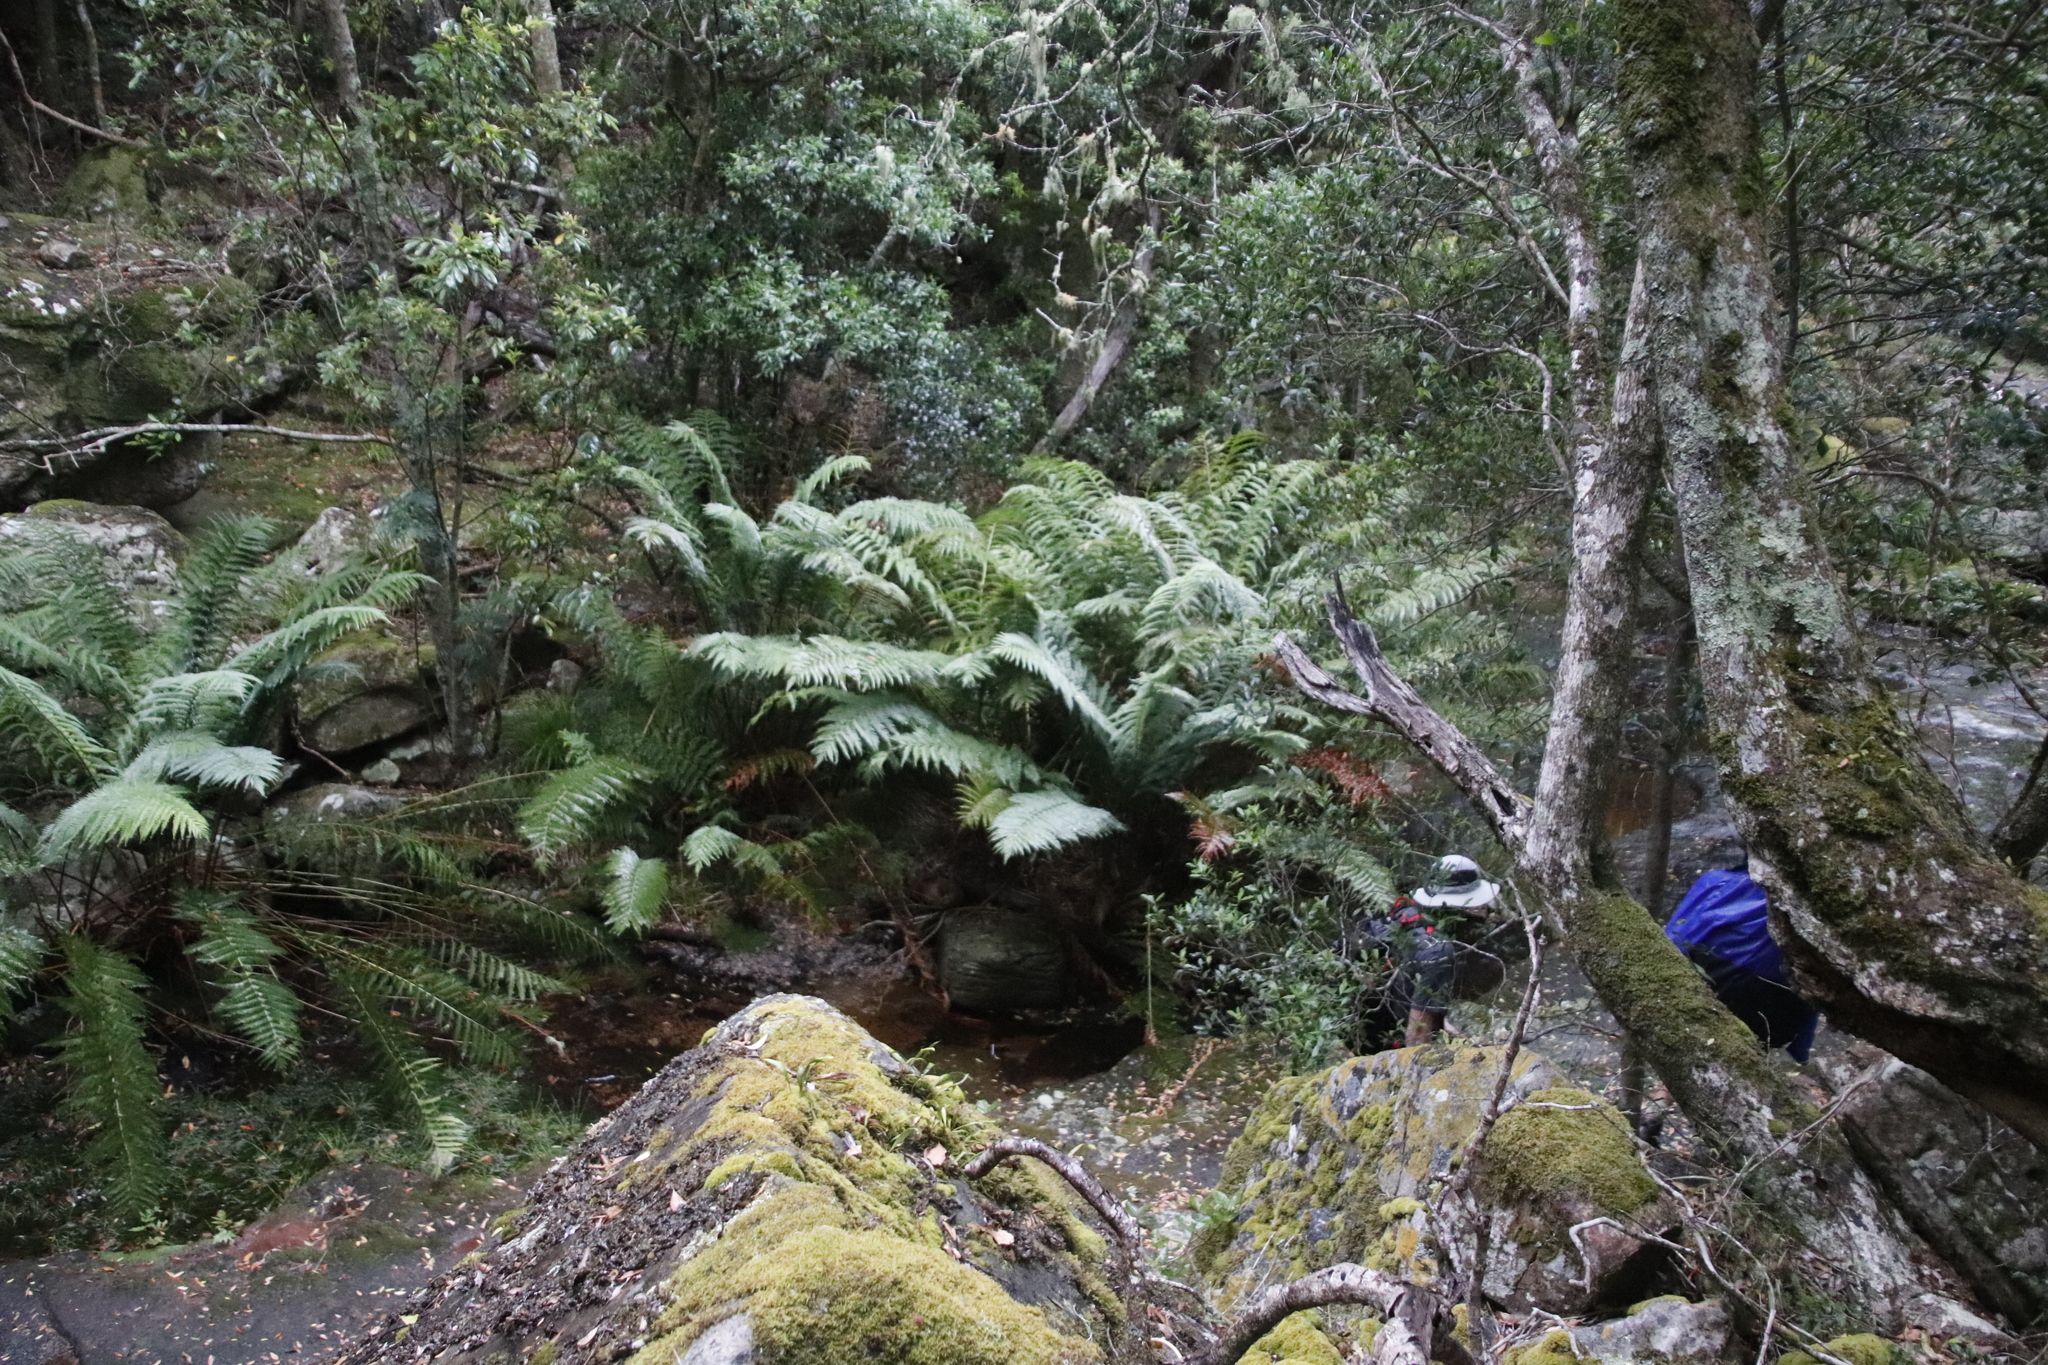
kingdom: Plantae
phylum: Tracheophyta
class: Polypodiopsida
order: Osmundales
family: Osmundaceae
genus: Todea
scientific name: Todea barbara
